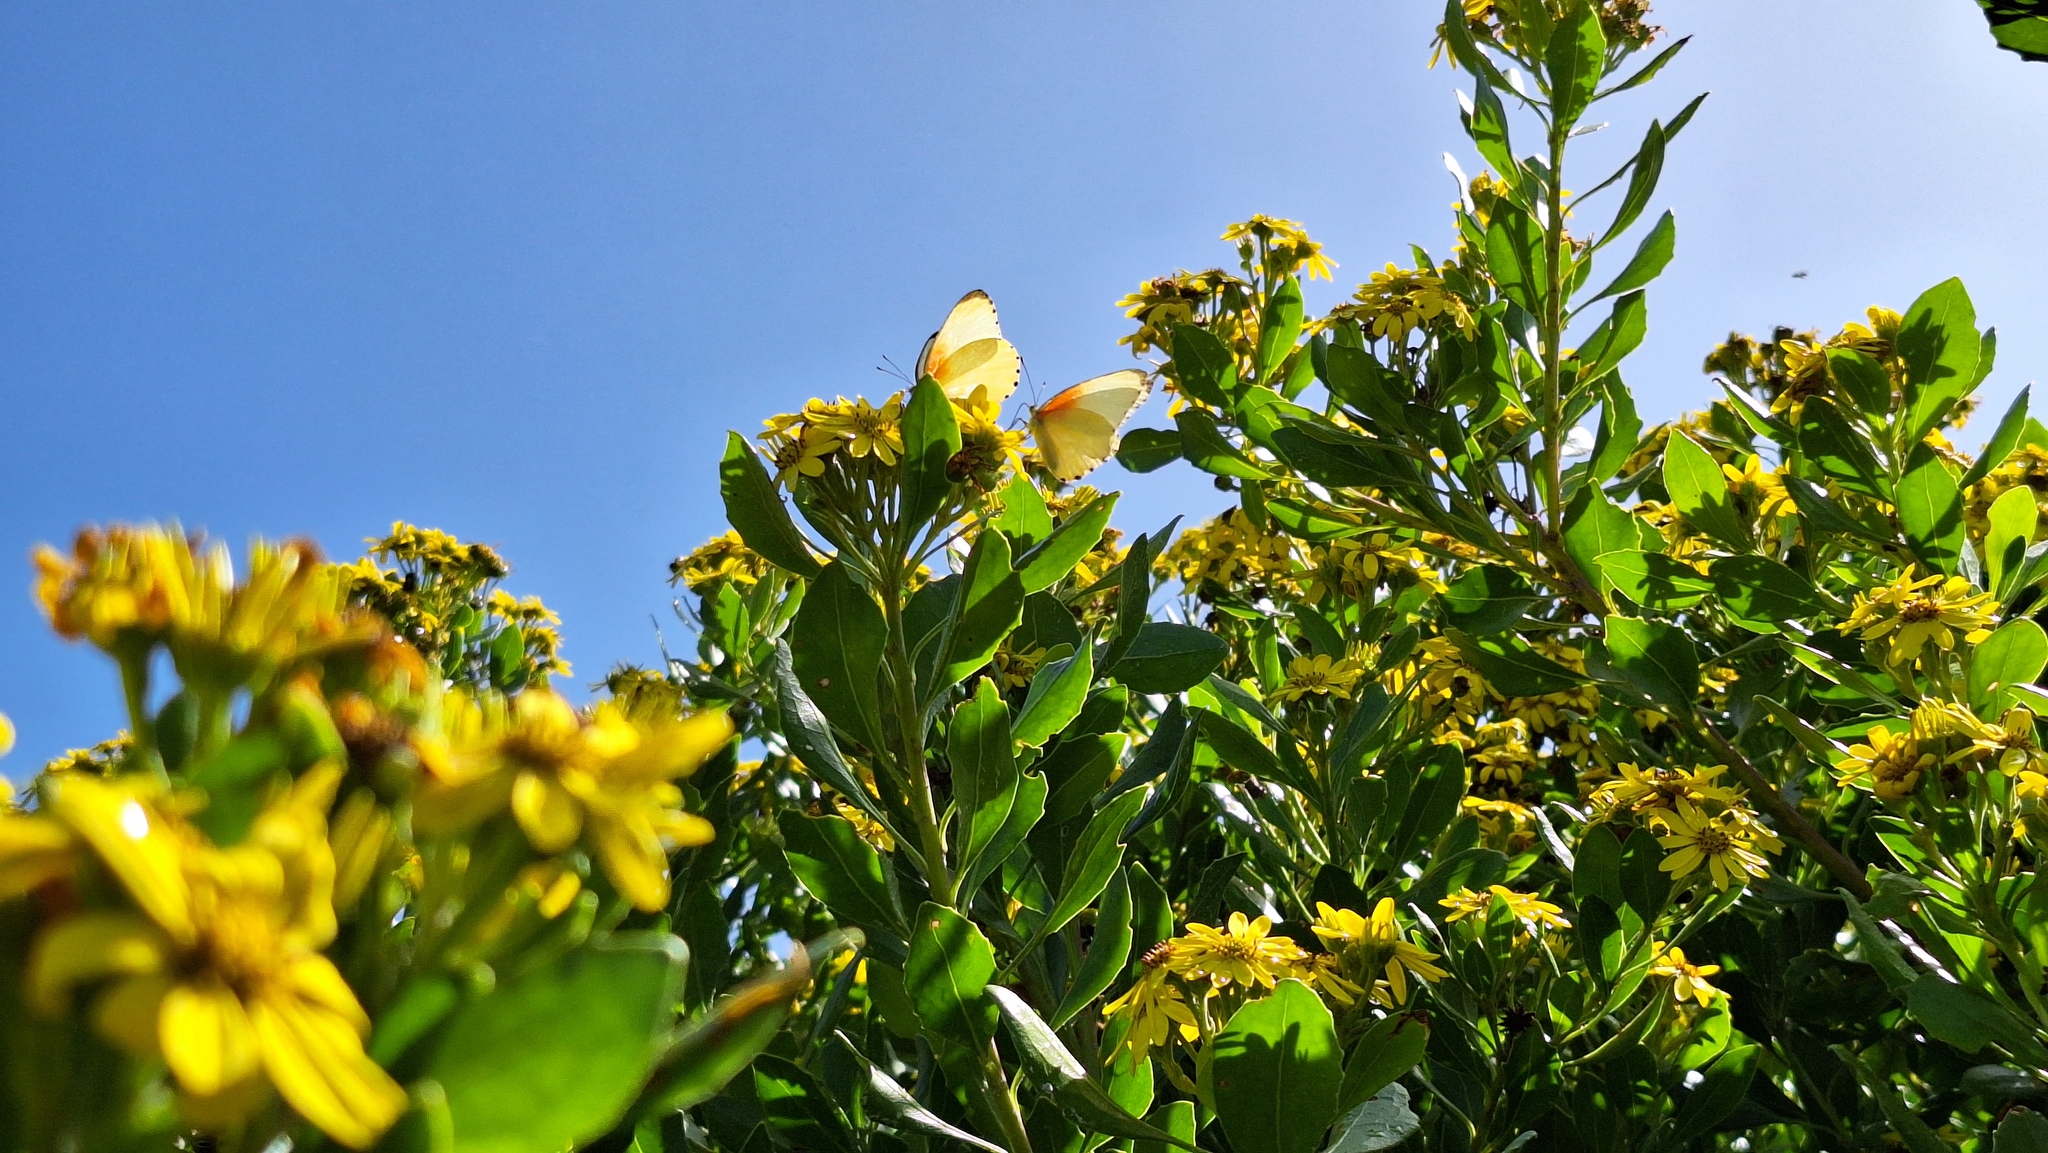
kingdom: Animalia
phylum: Arthropoda
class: Insecta
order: Lepidoptera
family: Pieridae
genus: Mylothris
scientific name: Mylothris agathina
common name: Eastern dotted border
